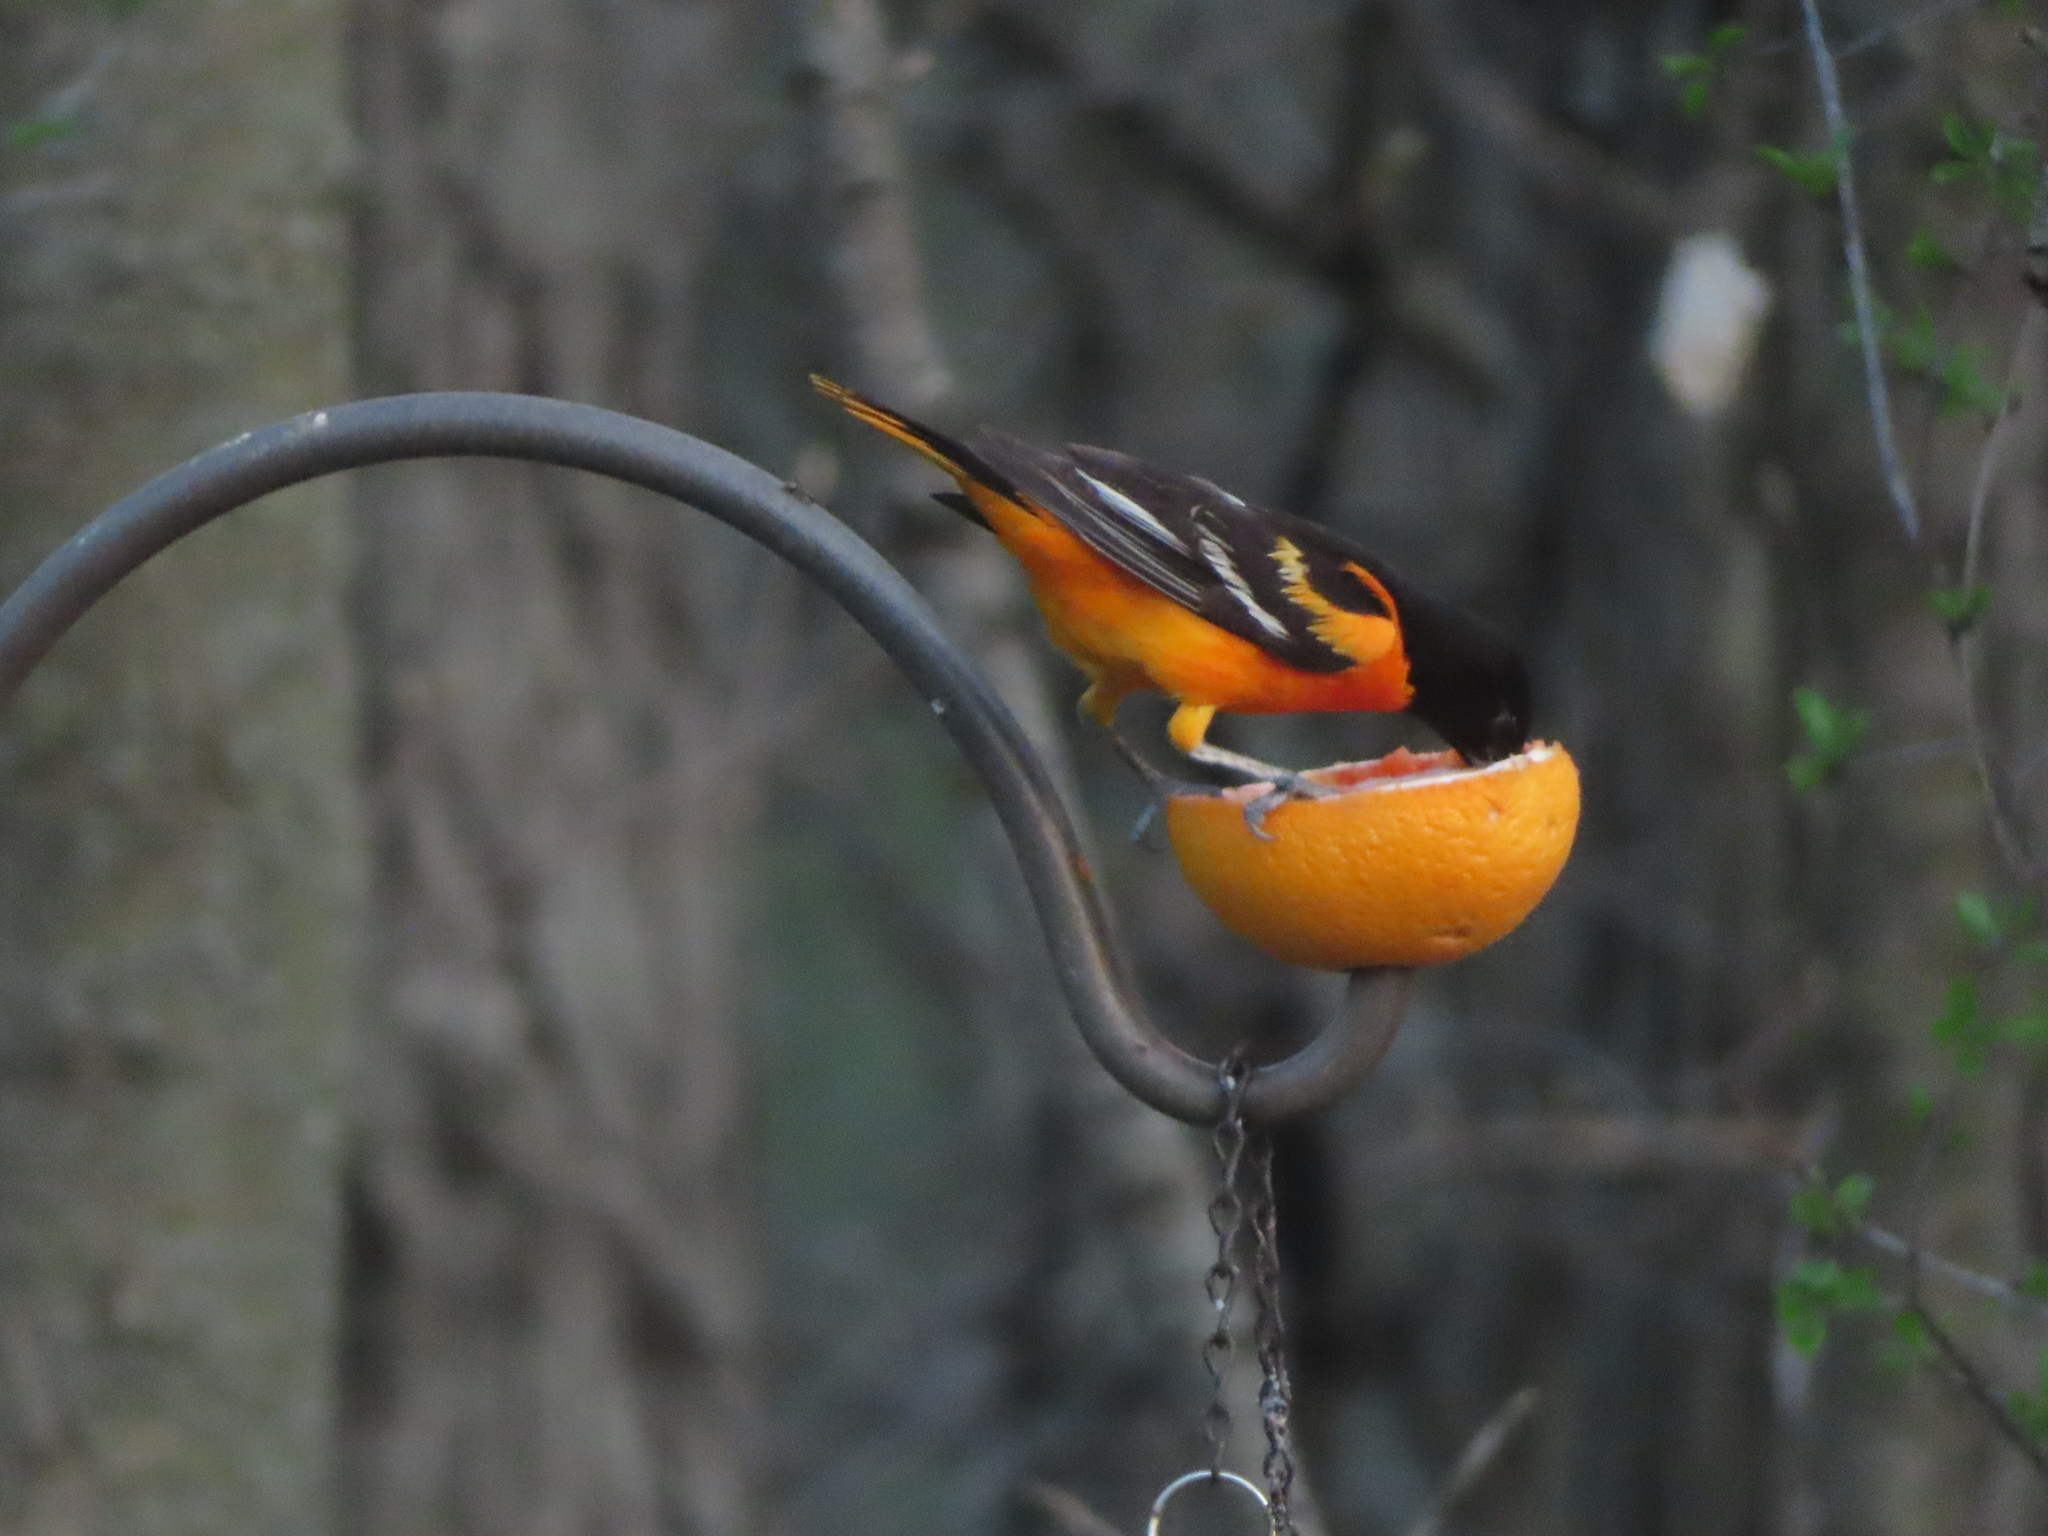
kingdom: Animalia
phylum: Chordata
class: Aves
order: Passeriformes
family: Icteridae
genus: Icterus
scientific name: Icterus galbula
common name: Baltimore oriole
